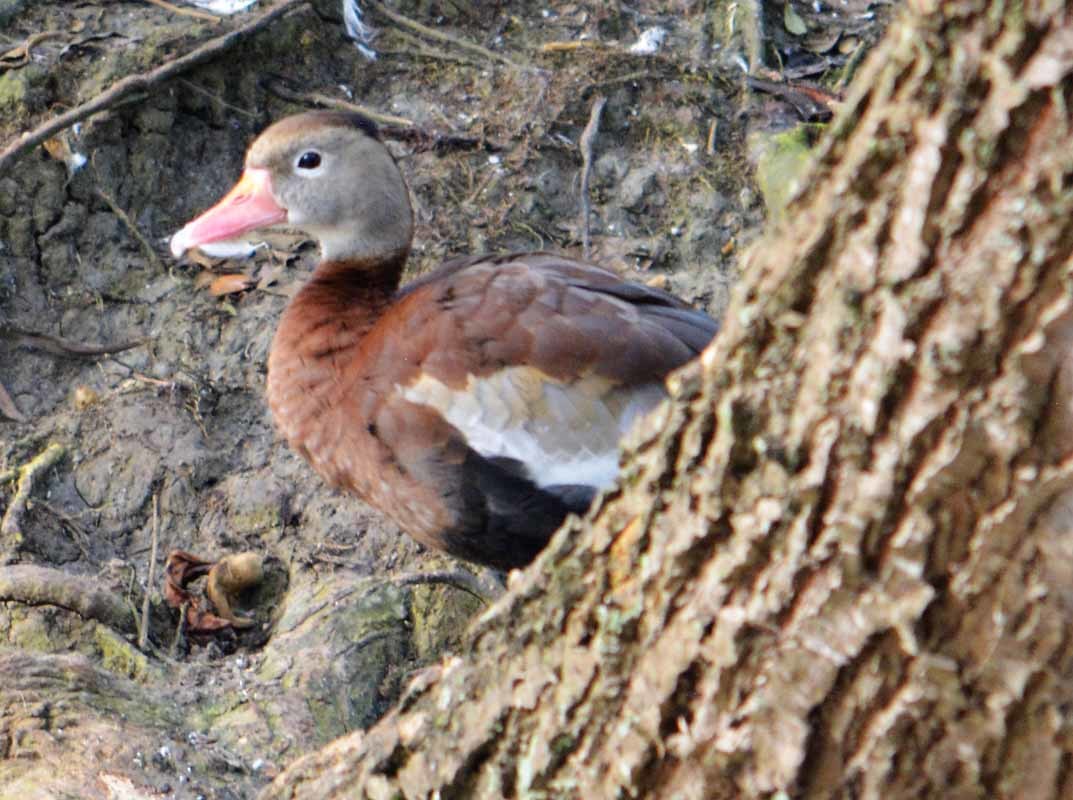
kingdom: Animalia
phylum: Chordata
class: Aves
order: Anseriformes
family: Anatidae
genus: Dendrocygna
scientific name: Dendrocygna autumnalis
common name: Black-bellied whistling duck
